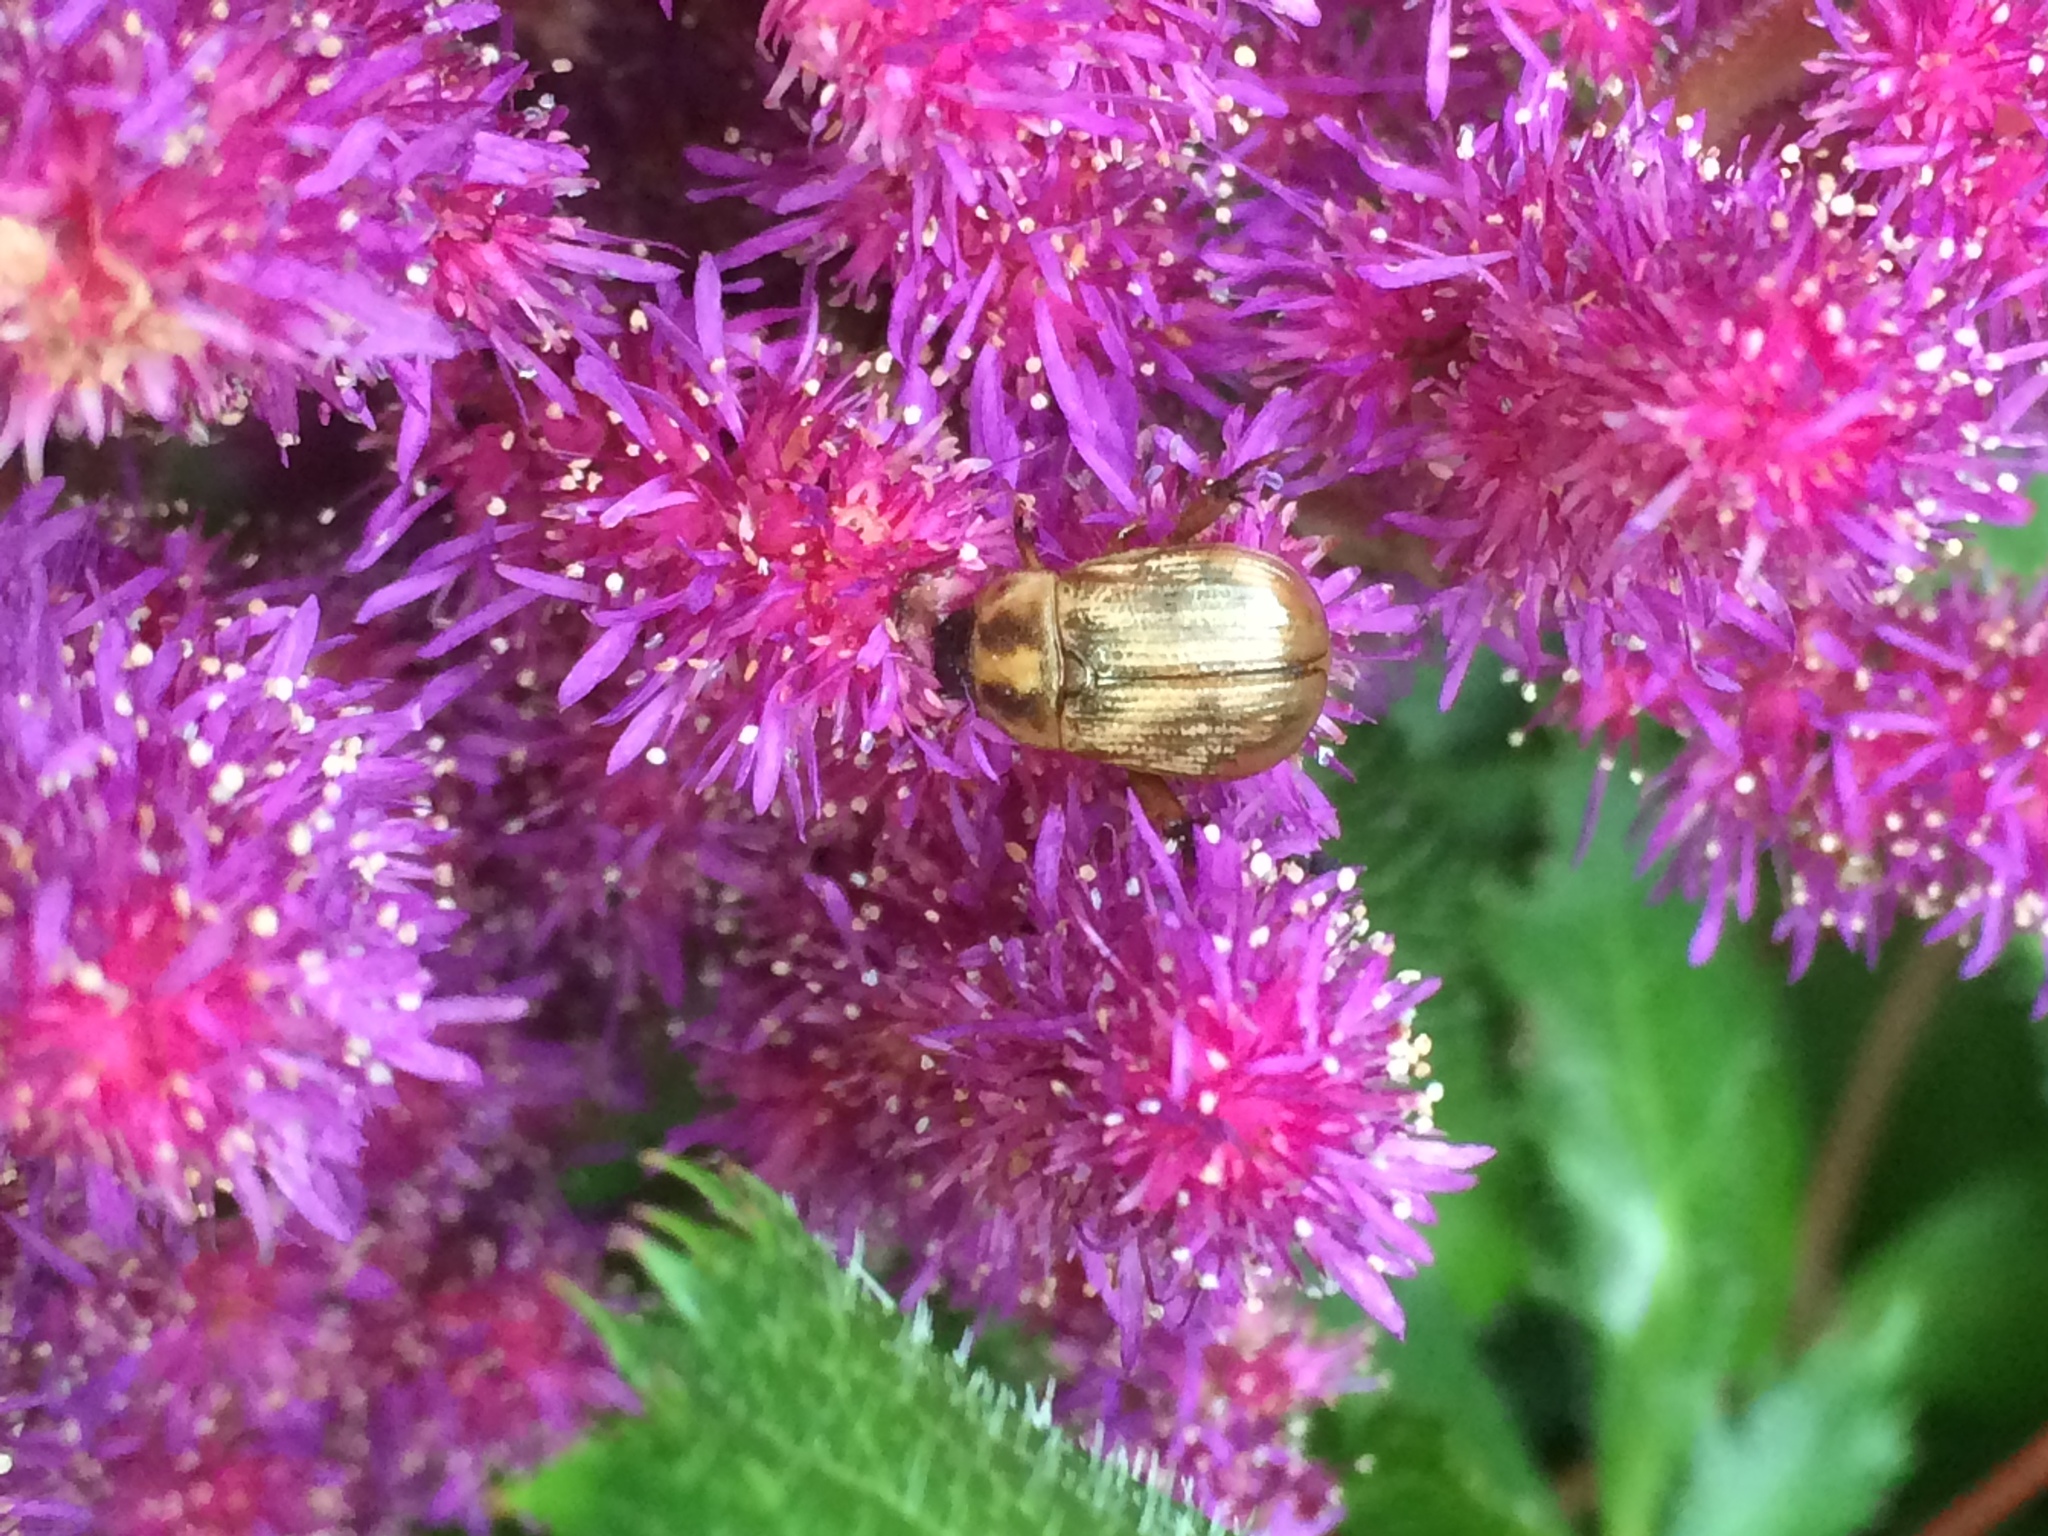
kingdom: Animalia
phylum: Arthropoda
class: Insecta
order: Coleoptera
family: Scarabaeidae
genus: Exomala
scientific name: Exomala orientalis
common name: Oriental beetle
